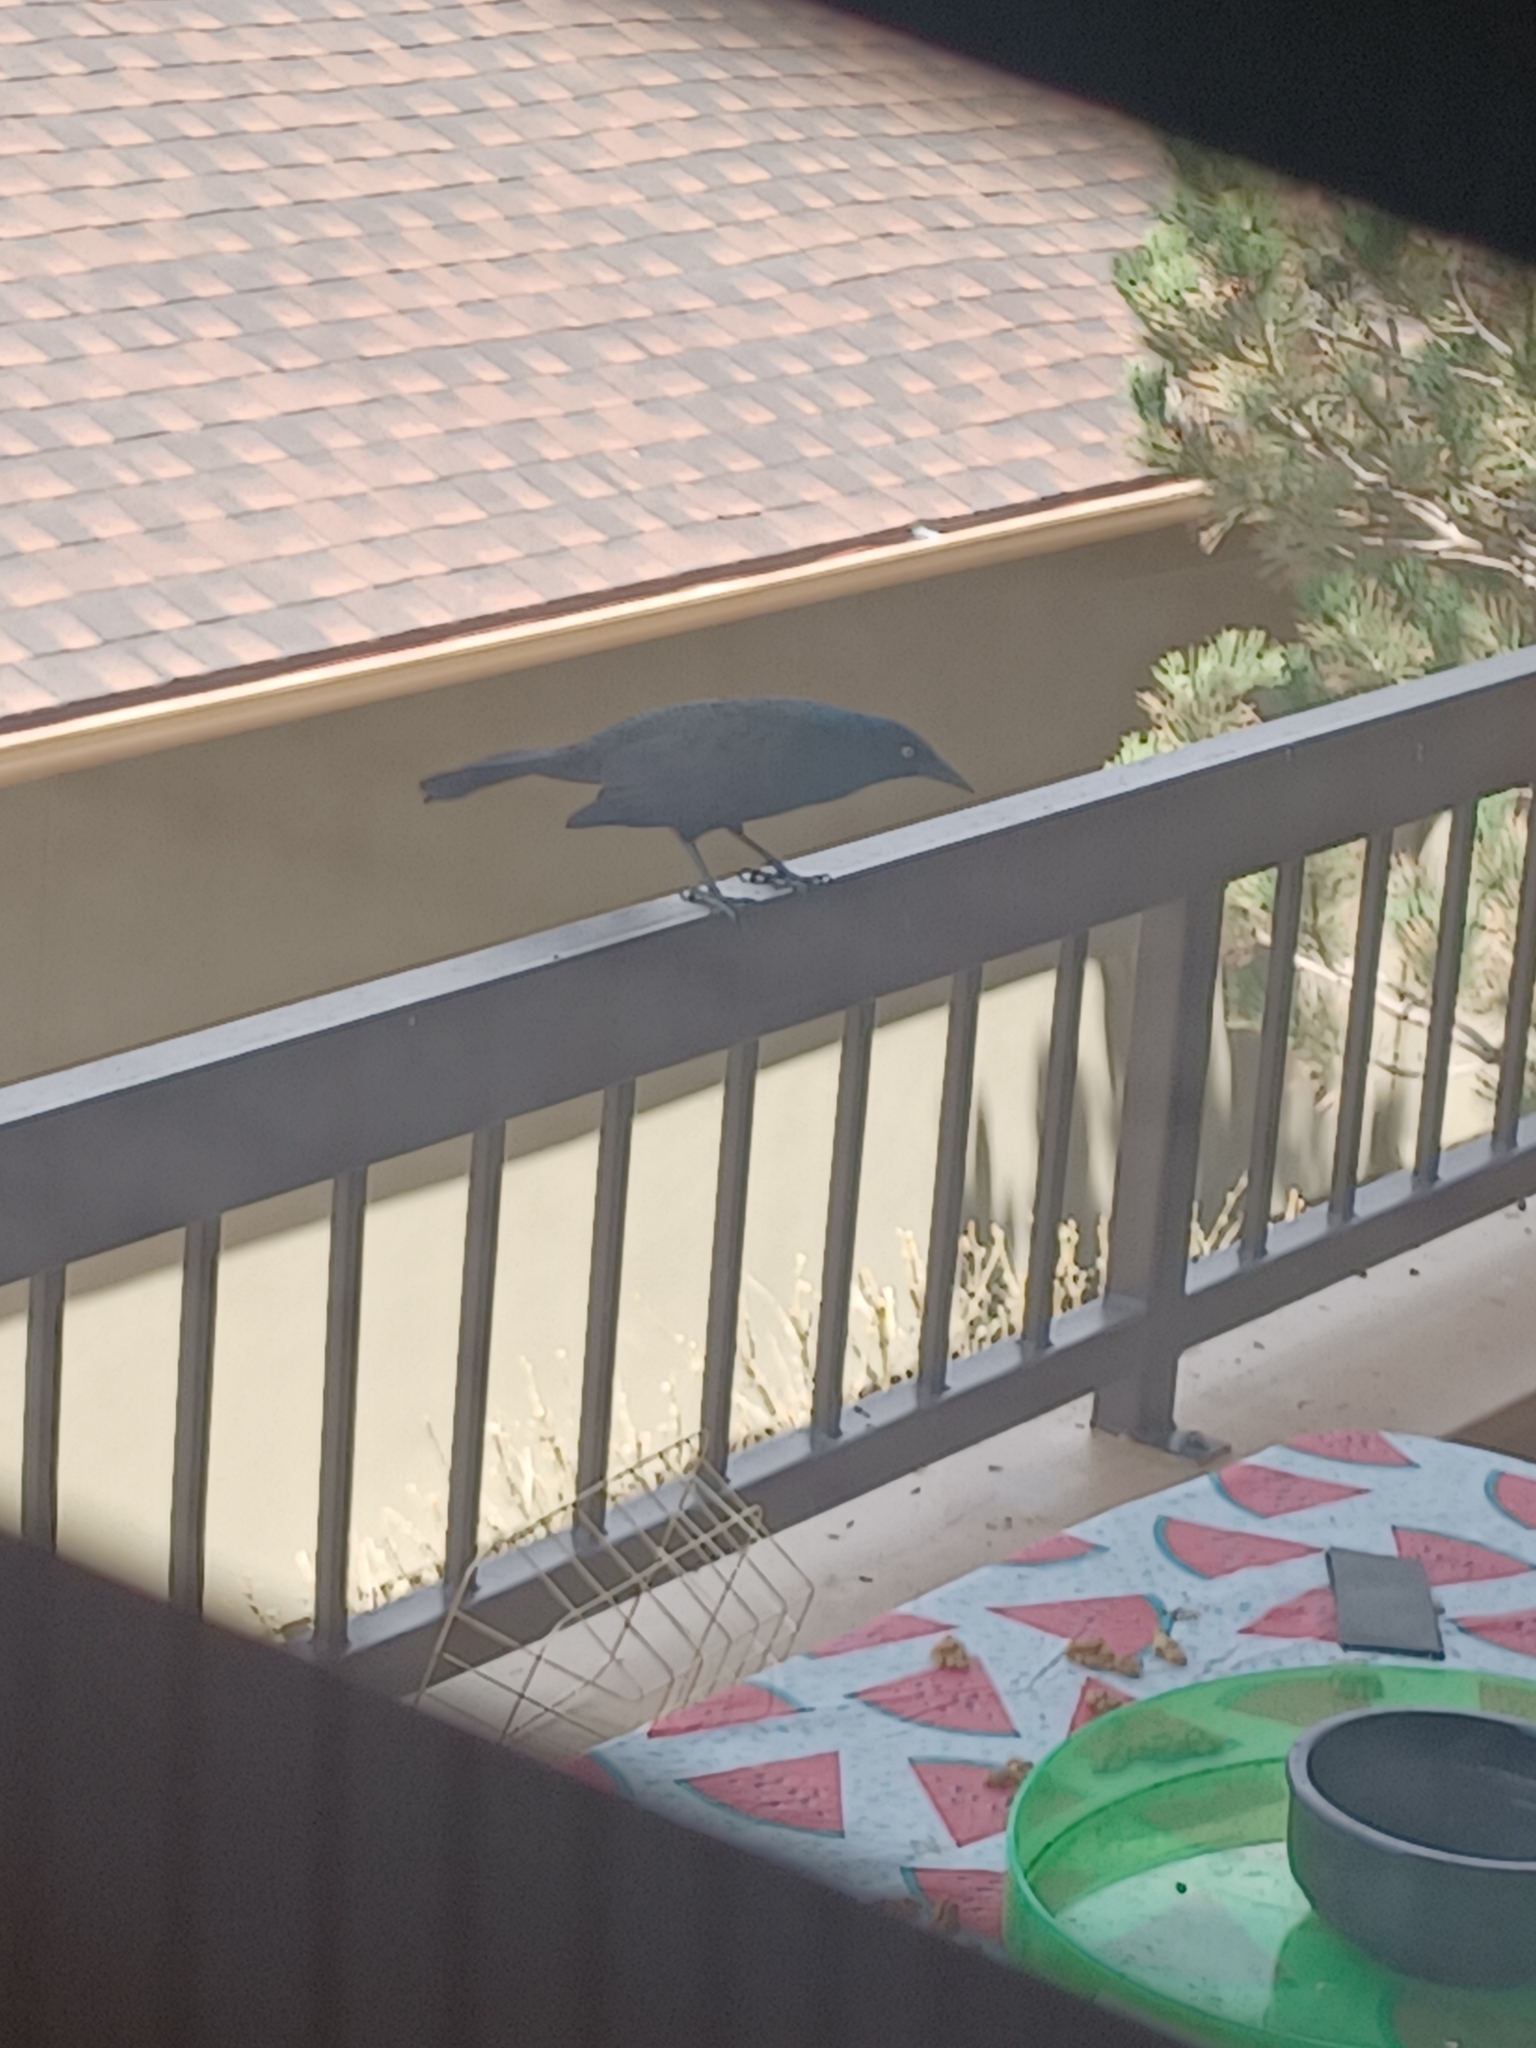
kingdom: Animalia
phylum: Chordata
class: Aves
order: Passeriformes
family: Icteridae
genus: Quiscalus
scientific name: Quiscalus quiscula
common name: Common grackle
